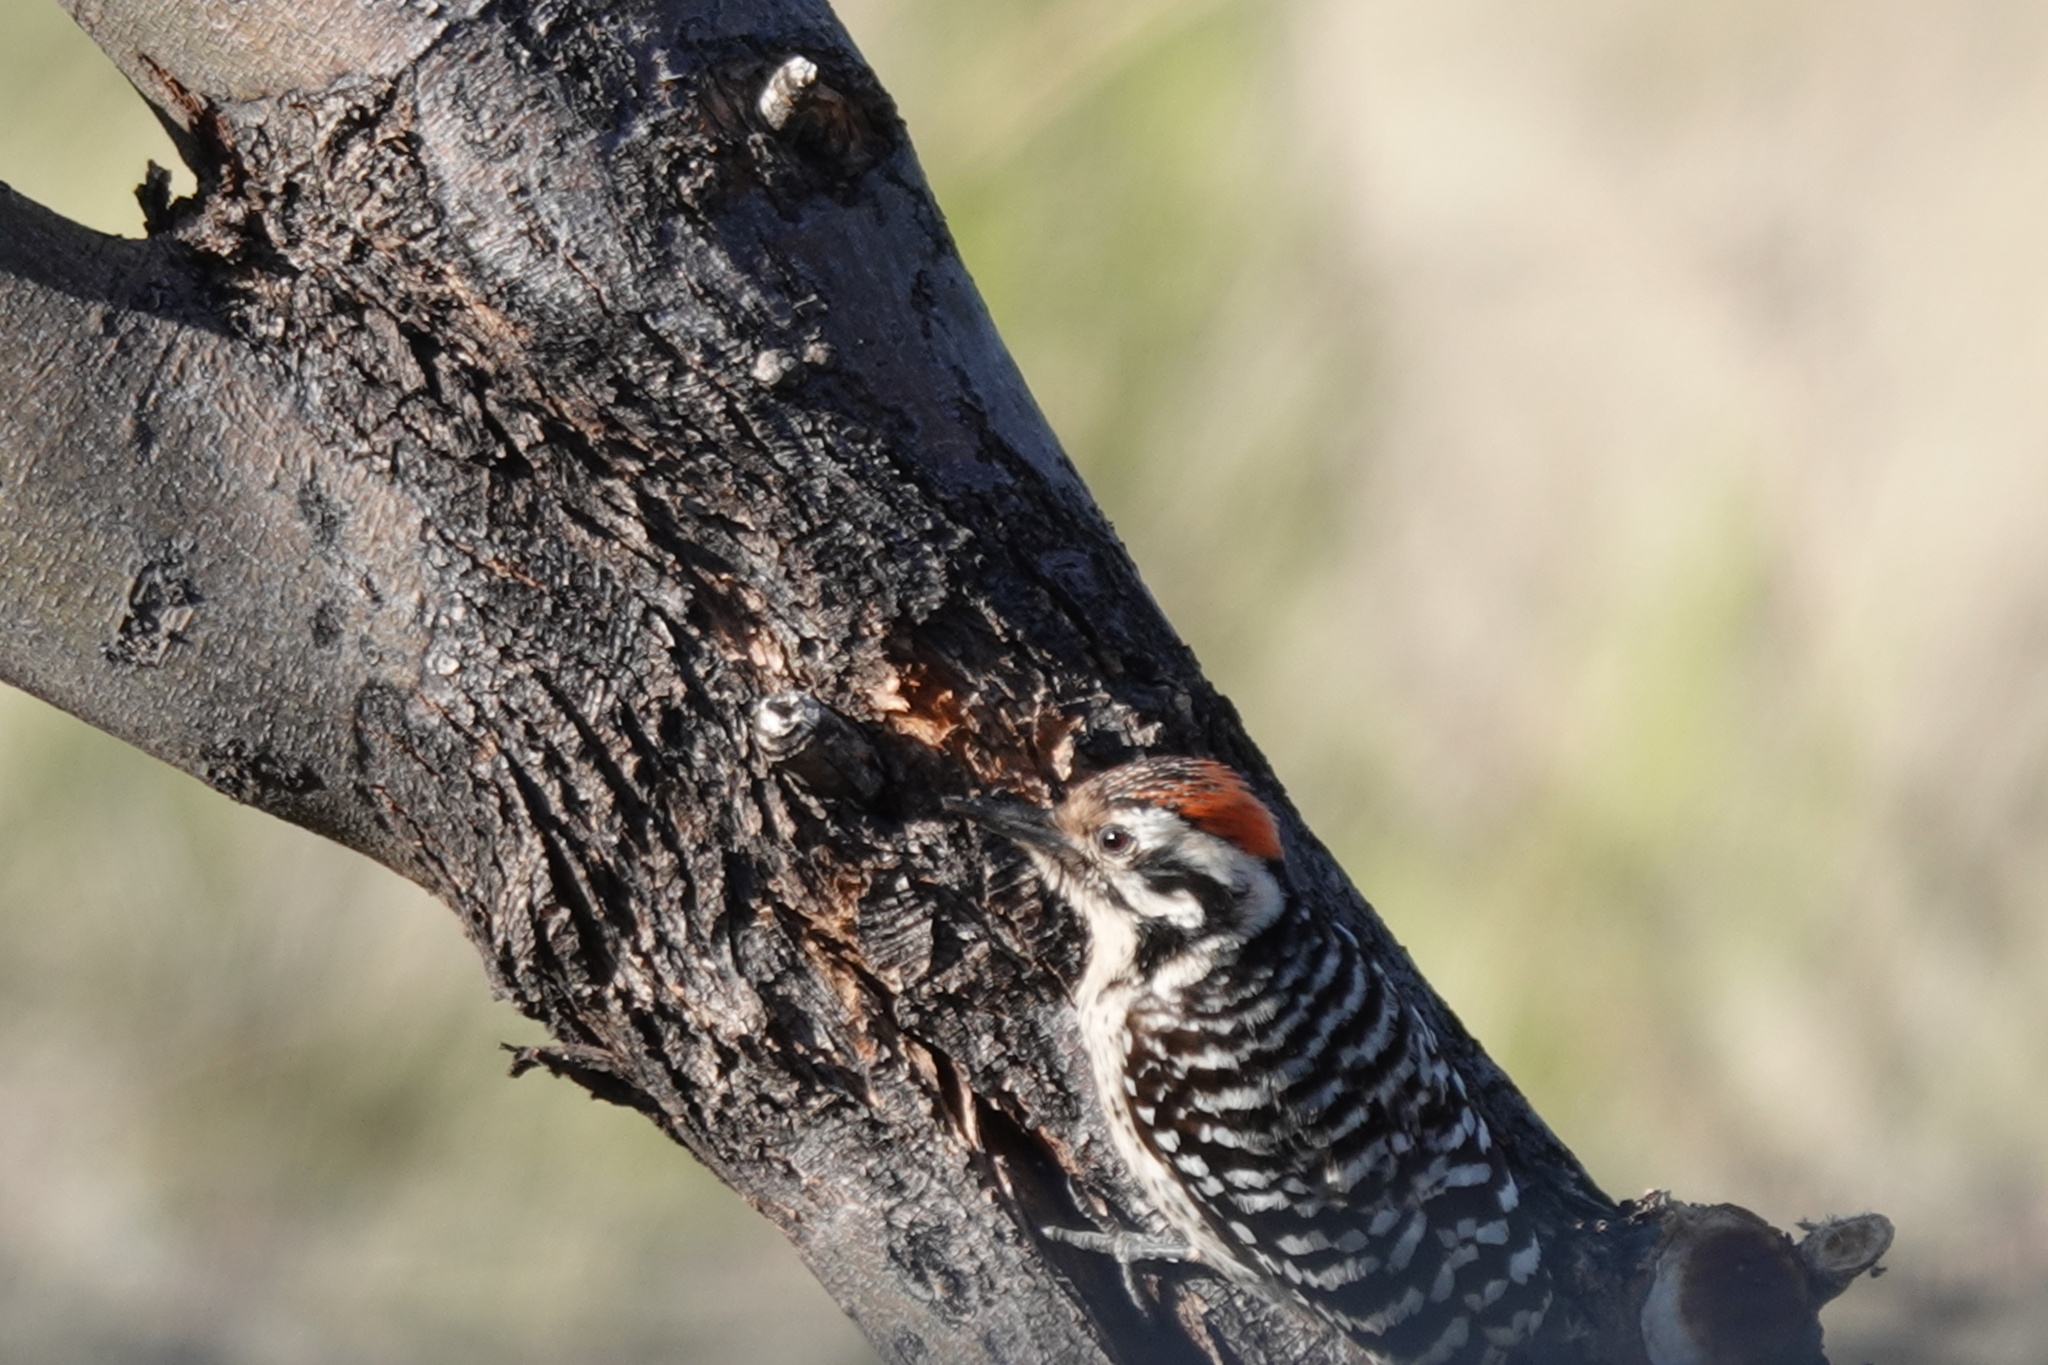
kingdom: Animalia
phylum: Chordata
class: Aves
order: Piciformes
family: Picidae
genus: Dryobates
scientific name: Dryobates scalaris
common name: Ladder-backed woodpecker
